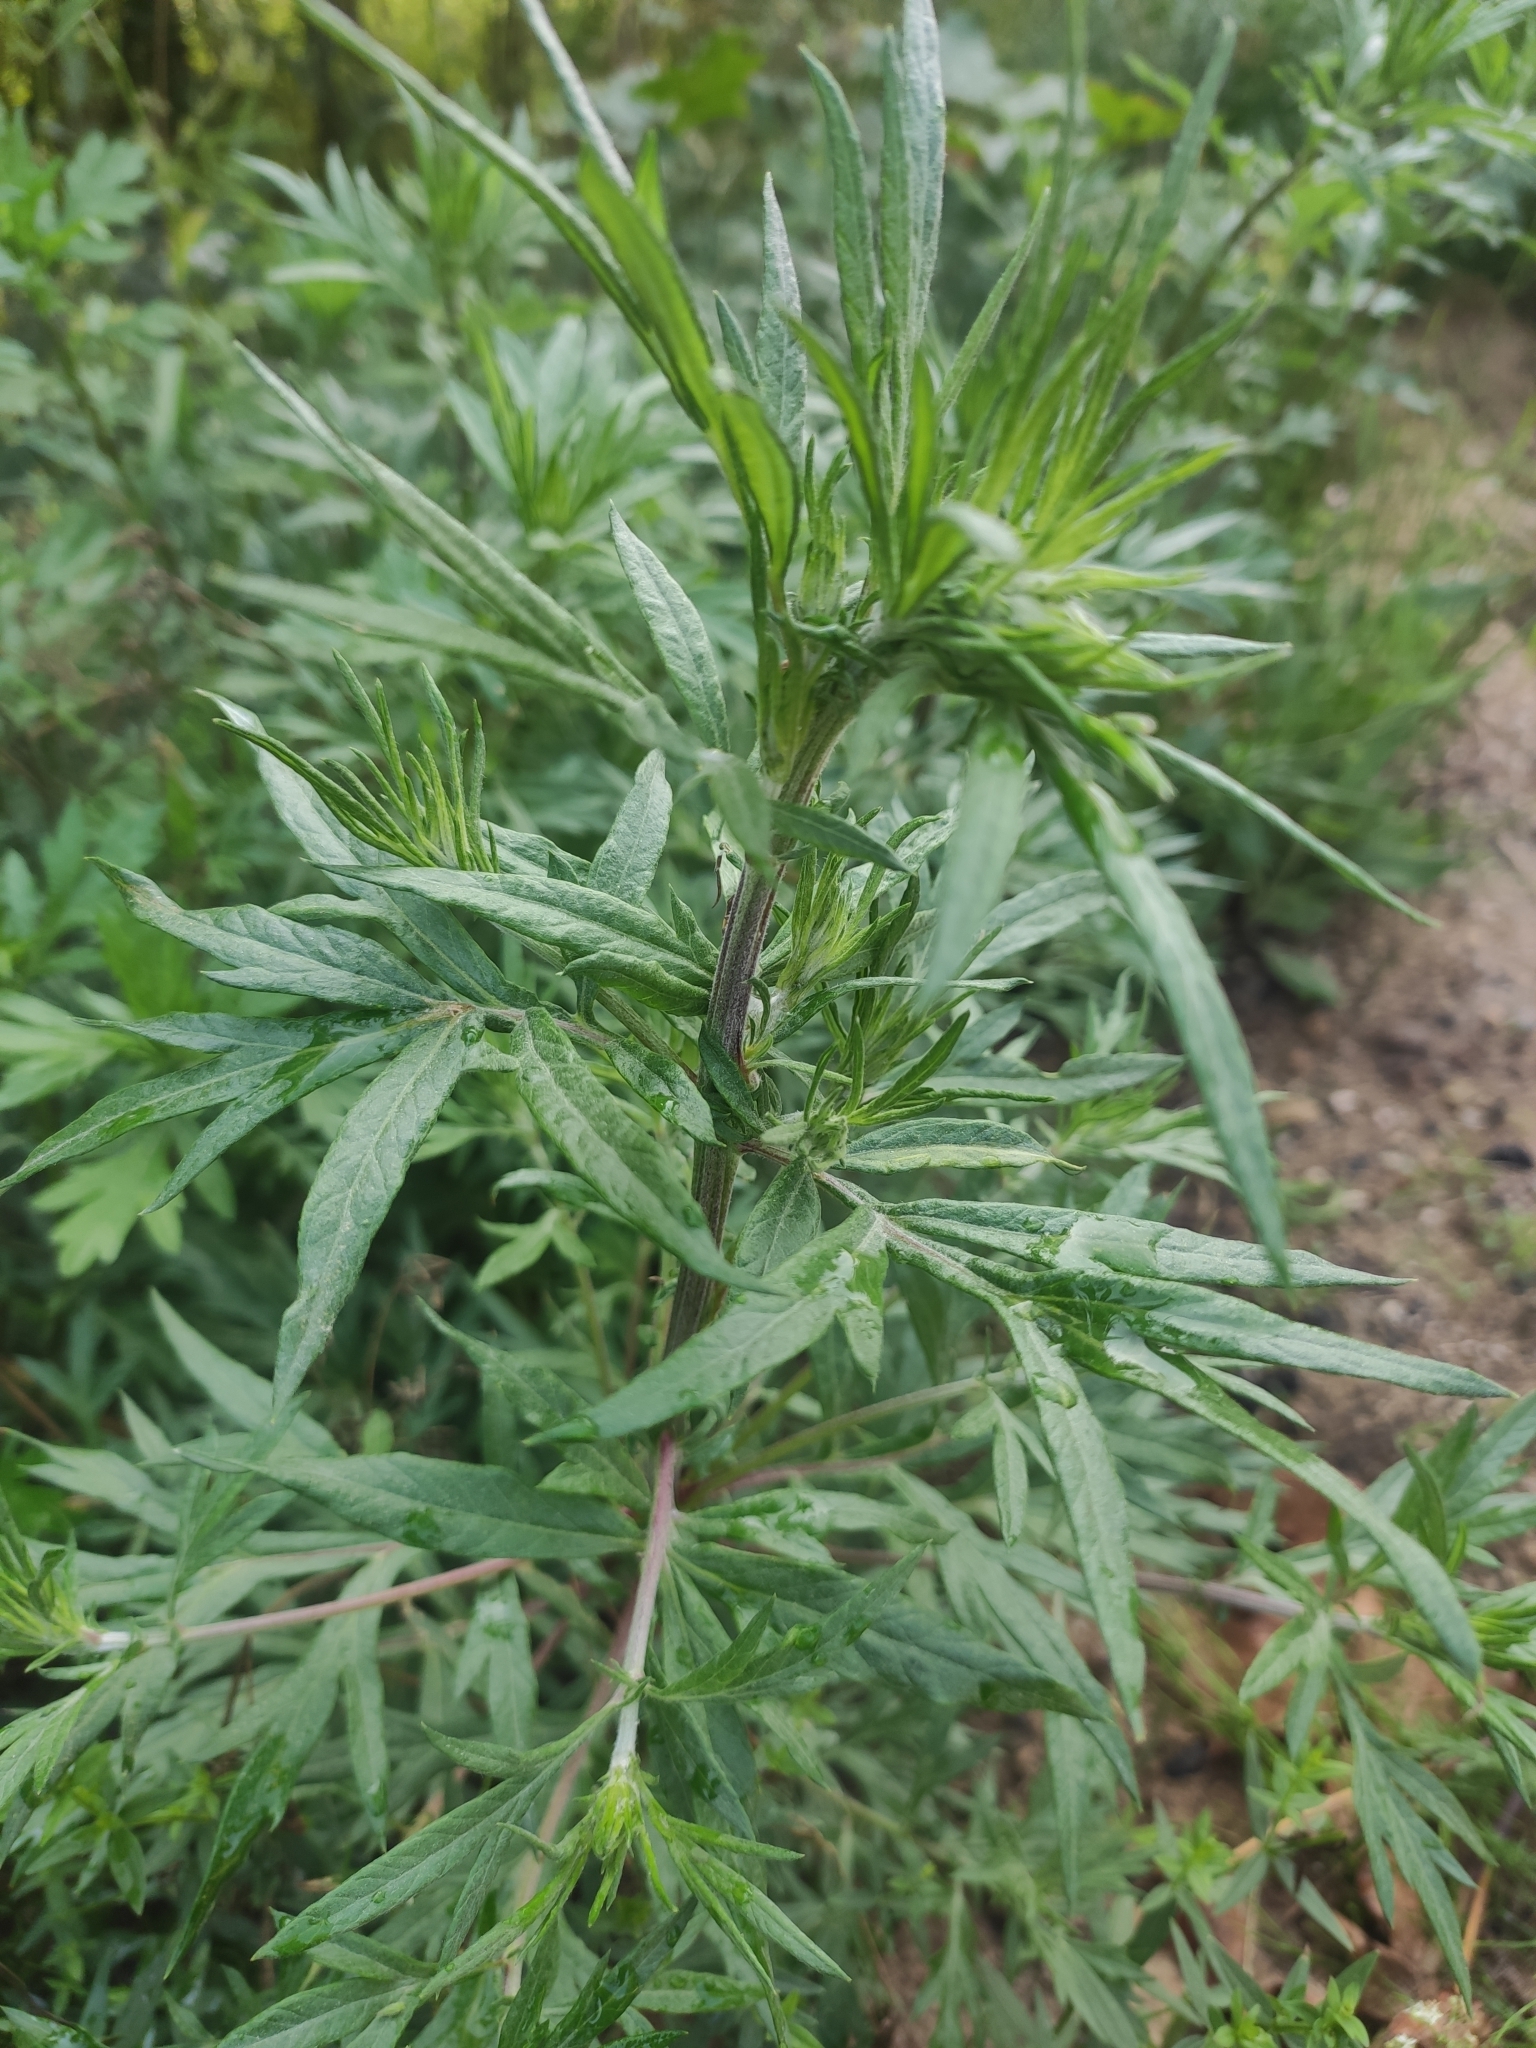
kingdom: Plantae
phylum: Tracheophyta
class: Magnoliopsida
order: Asterales
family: Asteraceae
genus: Artemisia
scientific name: Artemisia vulgaris
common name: Mugwort
